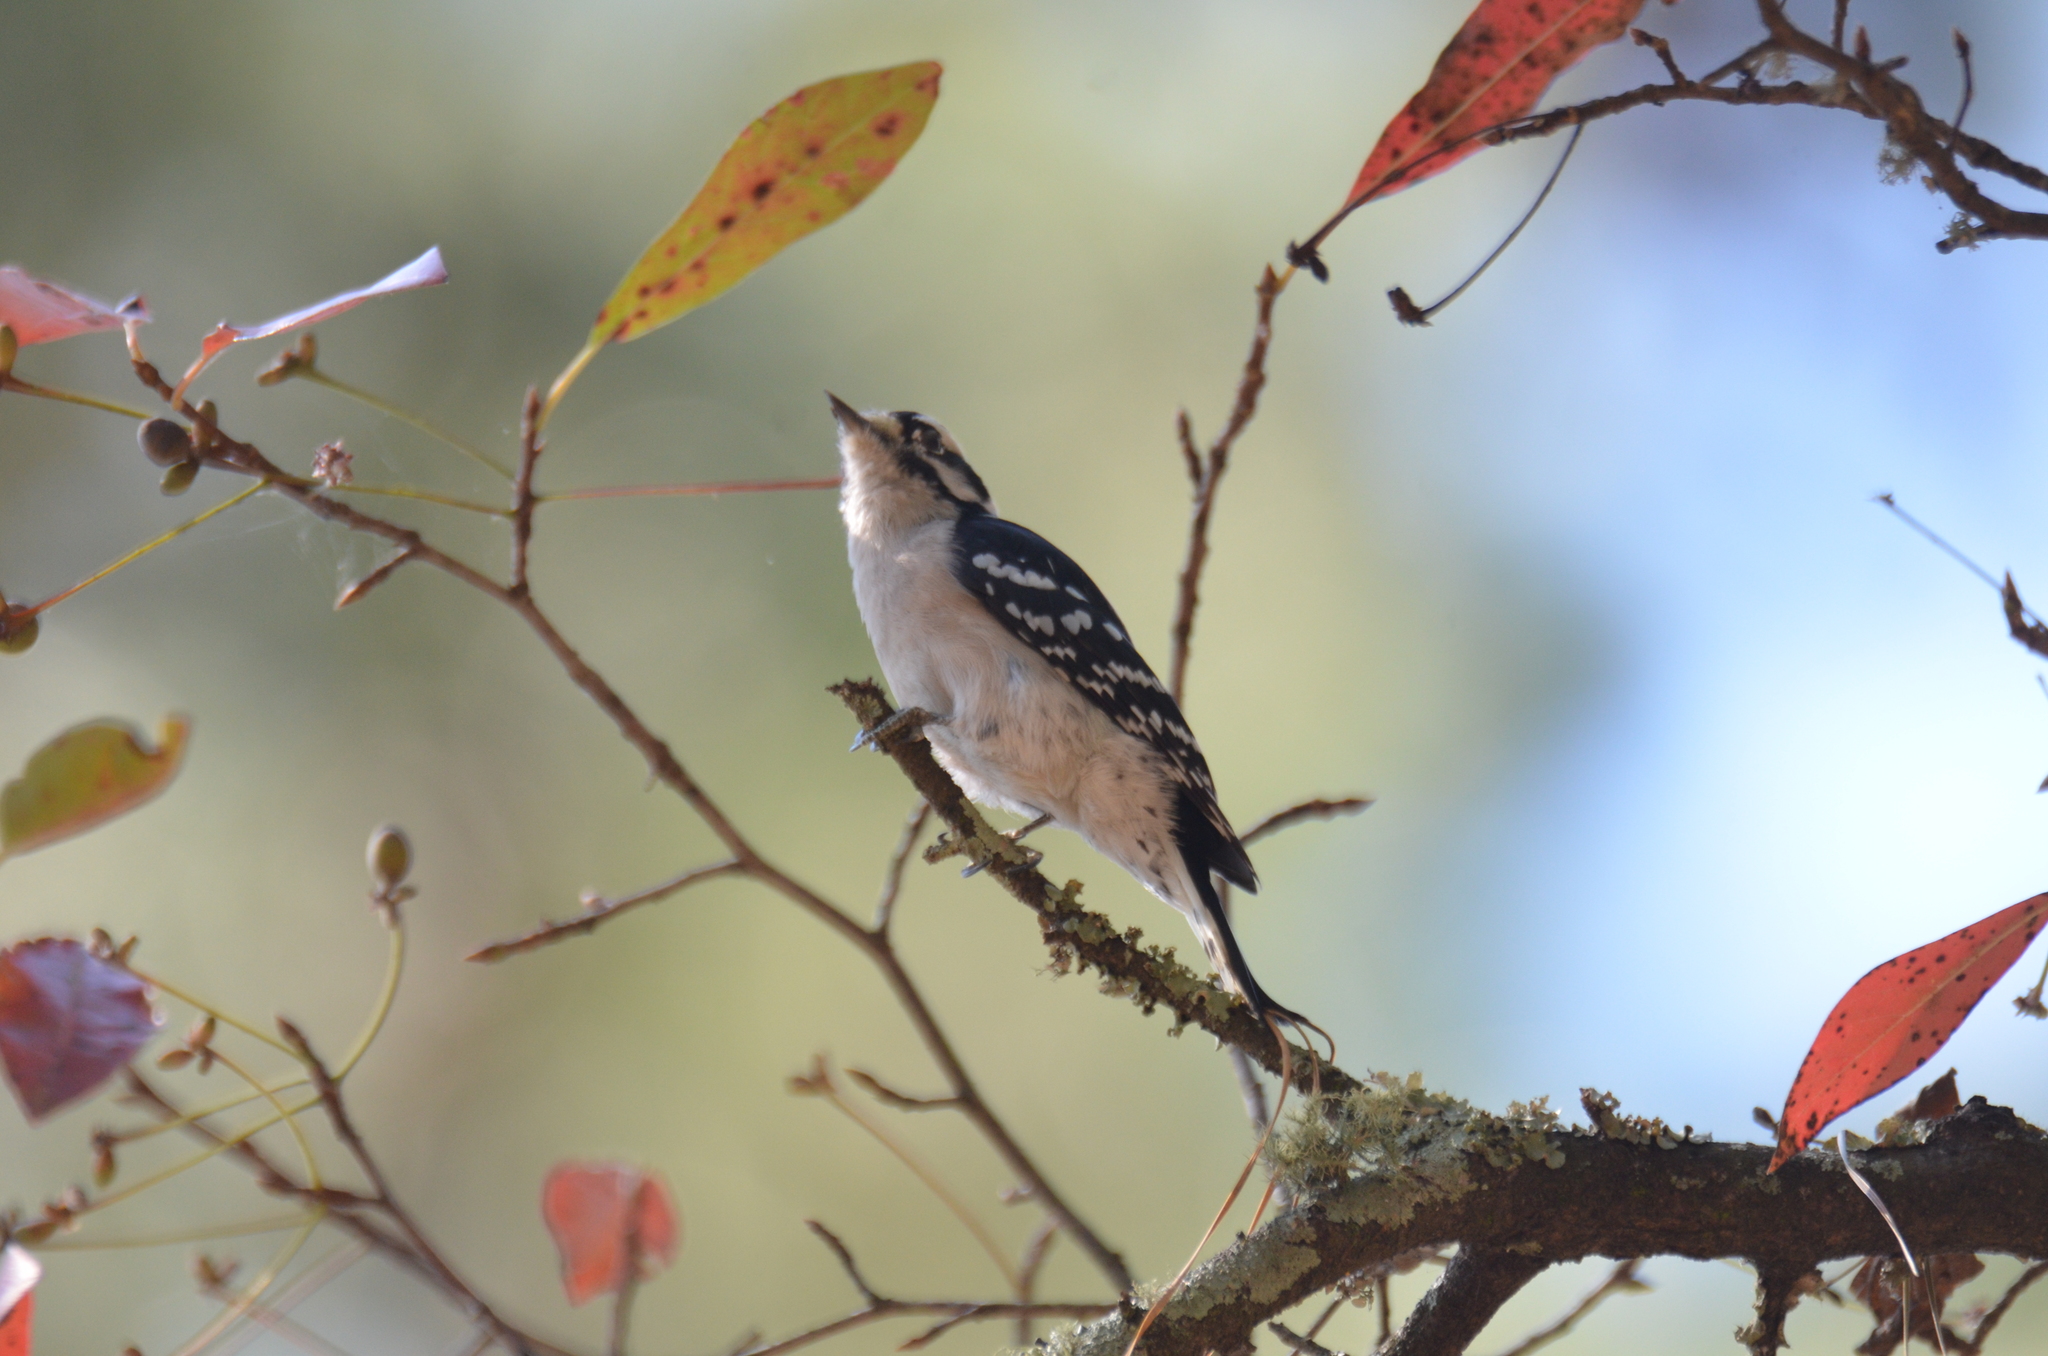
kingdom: Animalia
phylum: Chordata
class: Aves
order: Piciformes
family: Picidae
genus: Dryobates
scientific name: Dryobates pubescens
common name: Downy woodpecker
